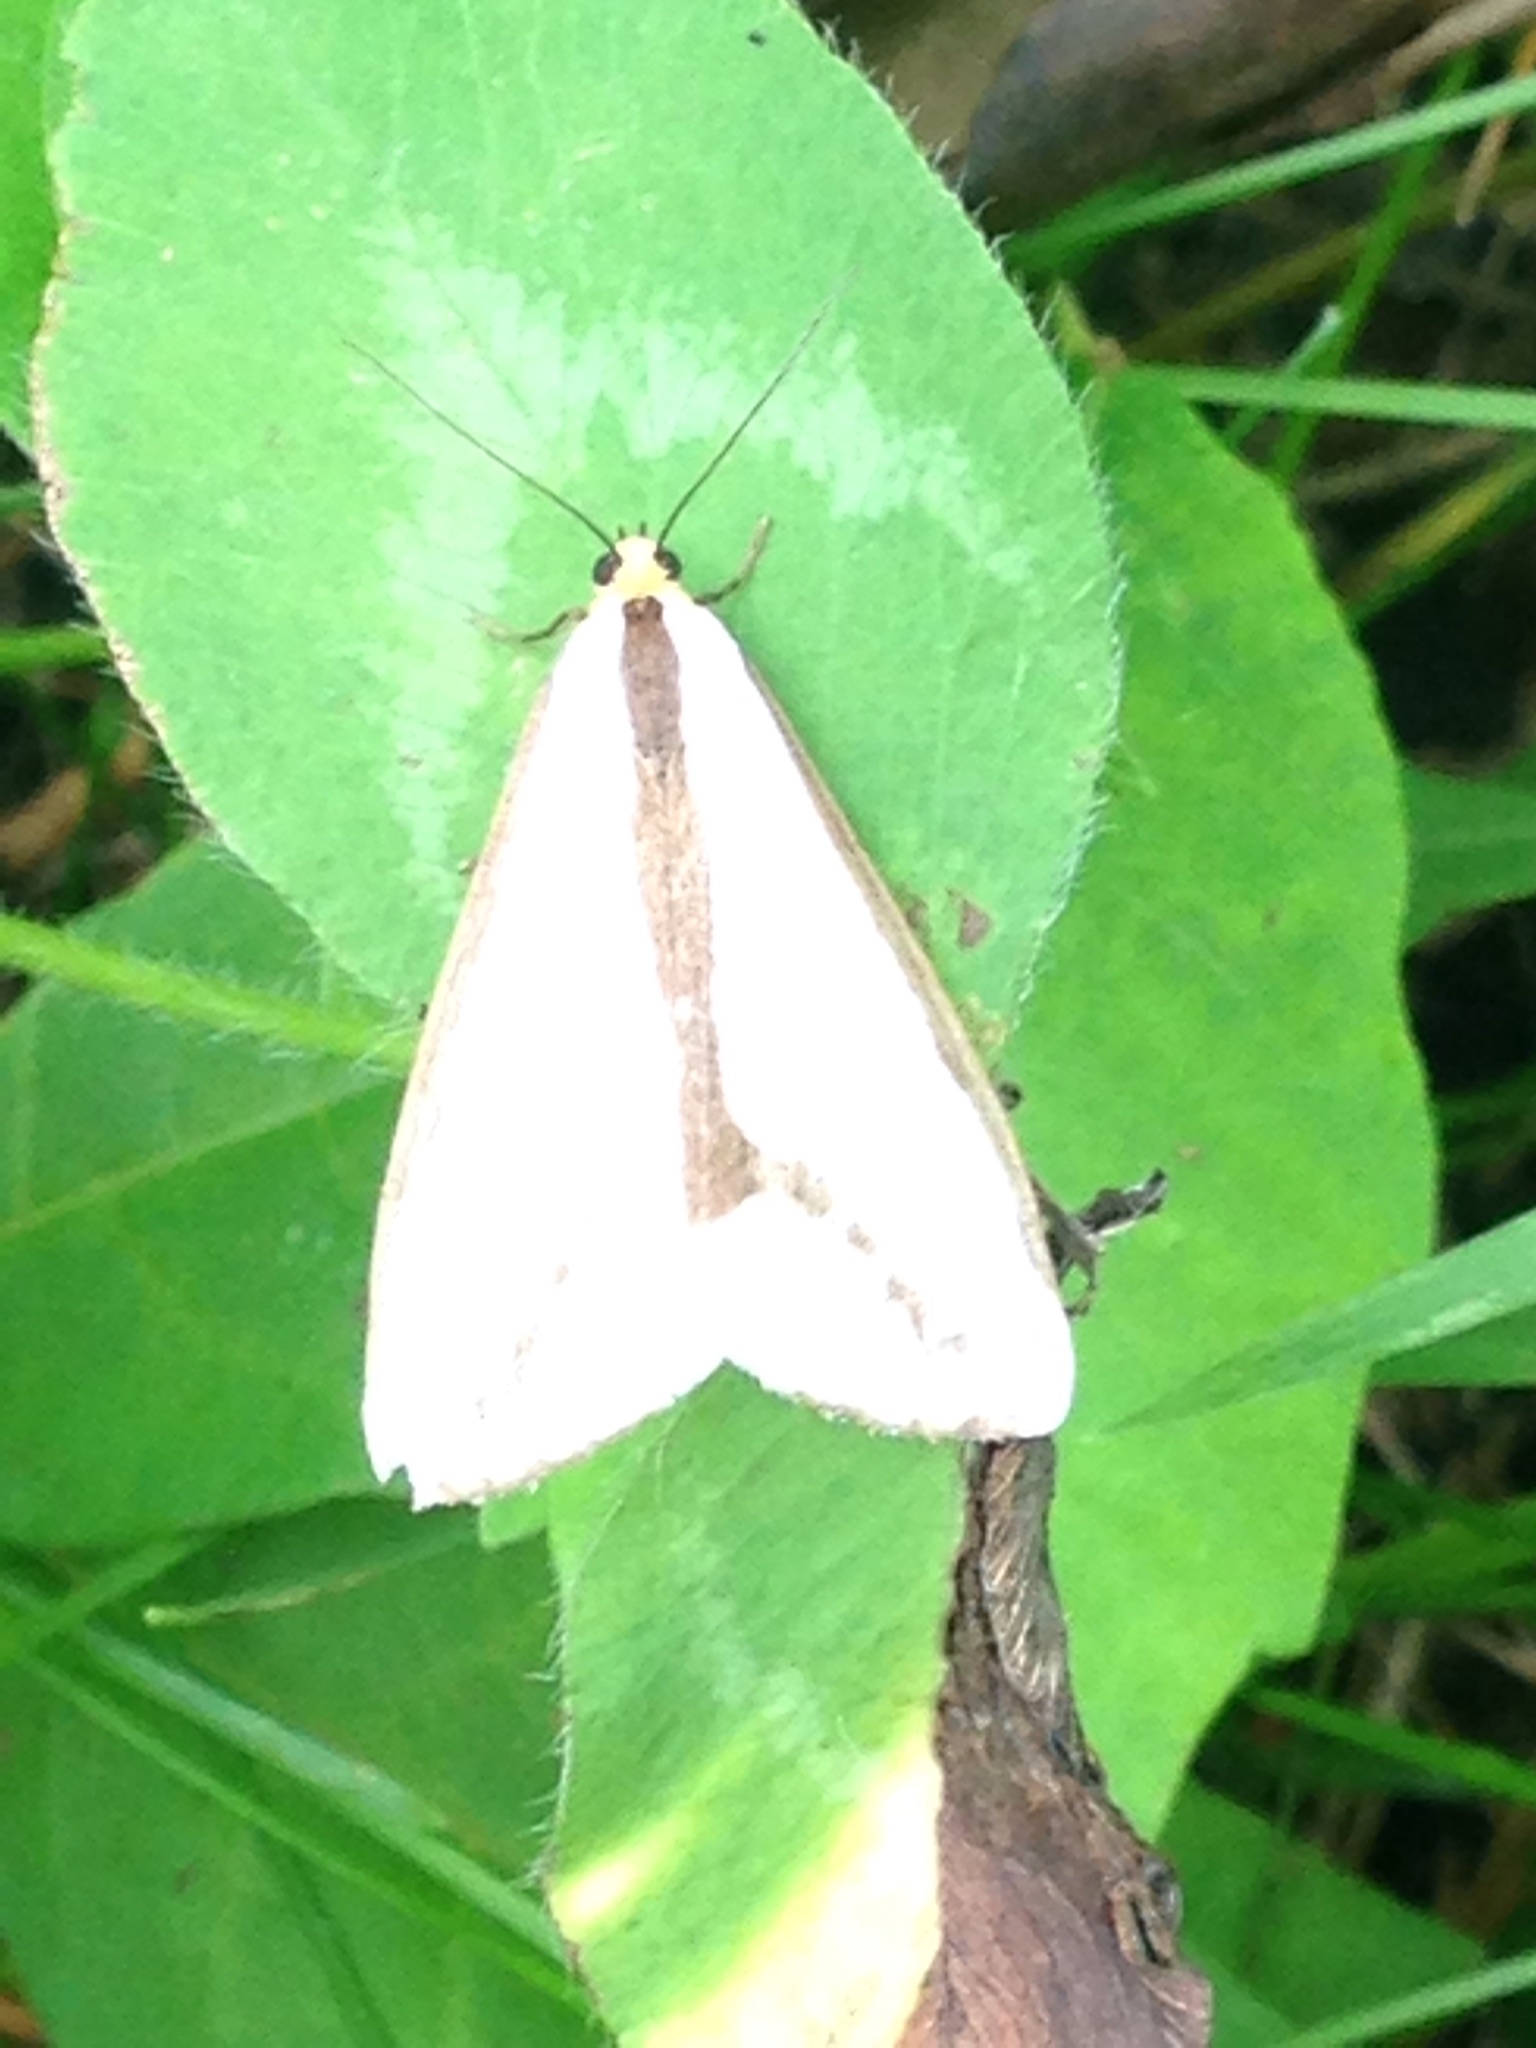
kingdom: Animalia
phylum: Arthropoda
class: Insecta
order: Lepidoptera
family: Erebidae
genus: Haploa
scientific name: Haploa lecontei
